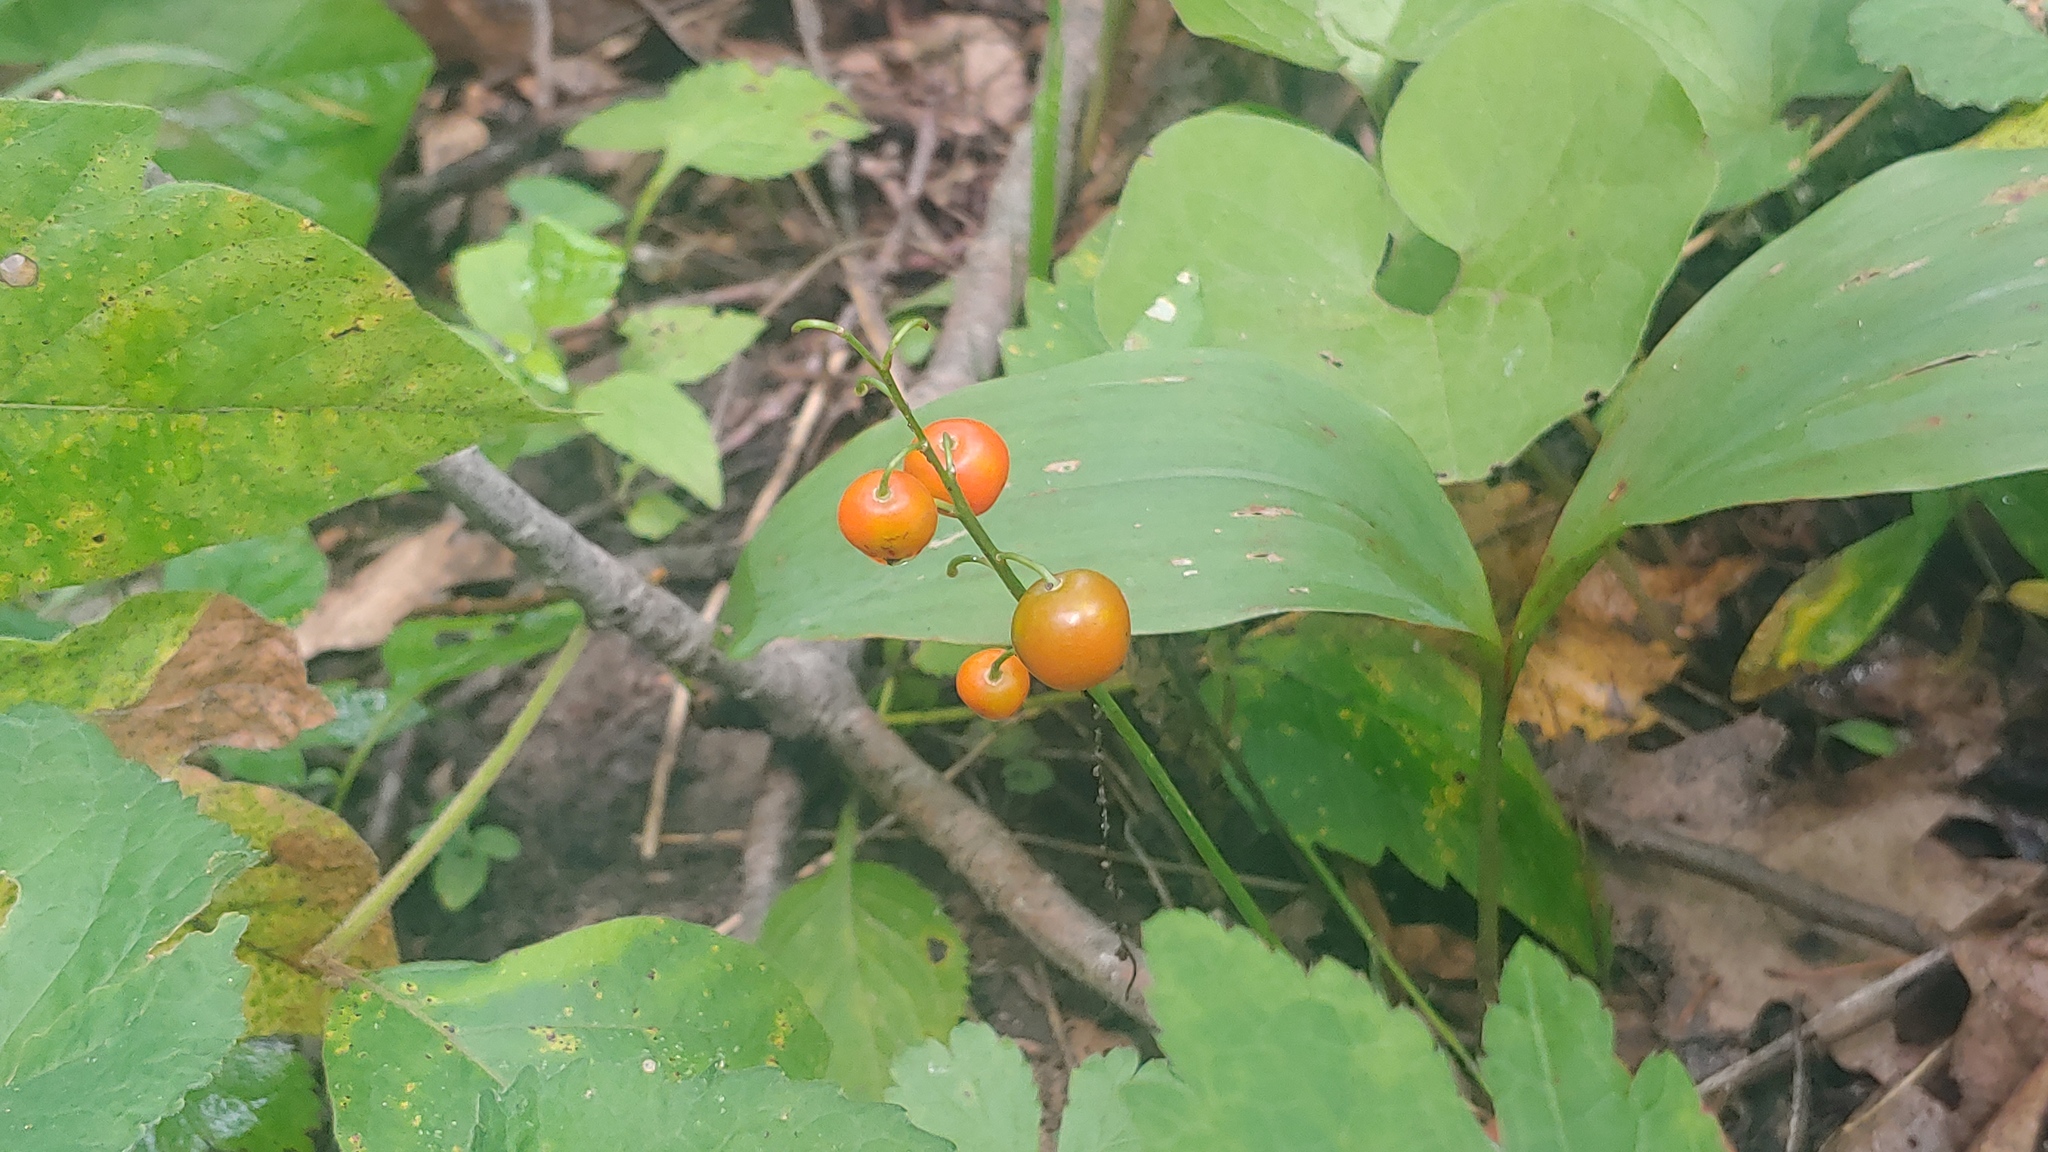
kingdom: Plantae
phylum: Tracheophyta
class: Liliopsida
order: Asparagales
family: Asparagaceae
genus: Convallaria
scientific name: Convallaria majalis
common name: Lily-of-the-valley
